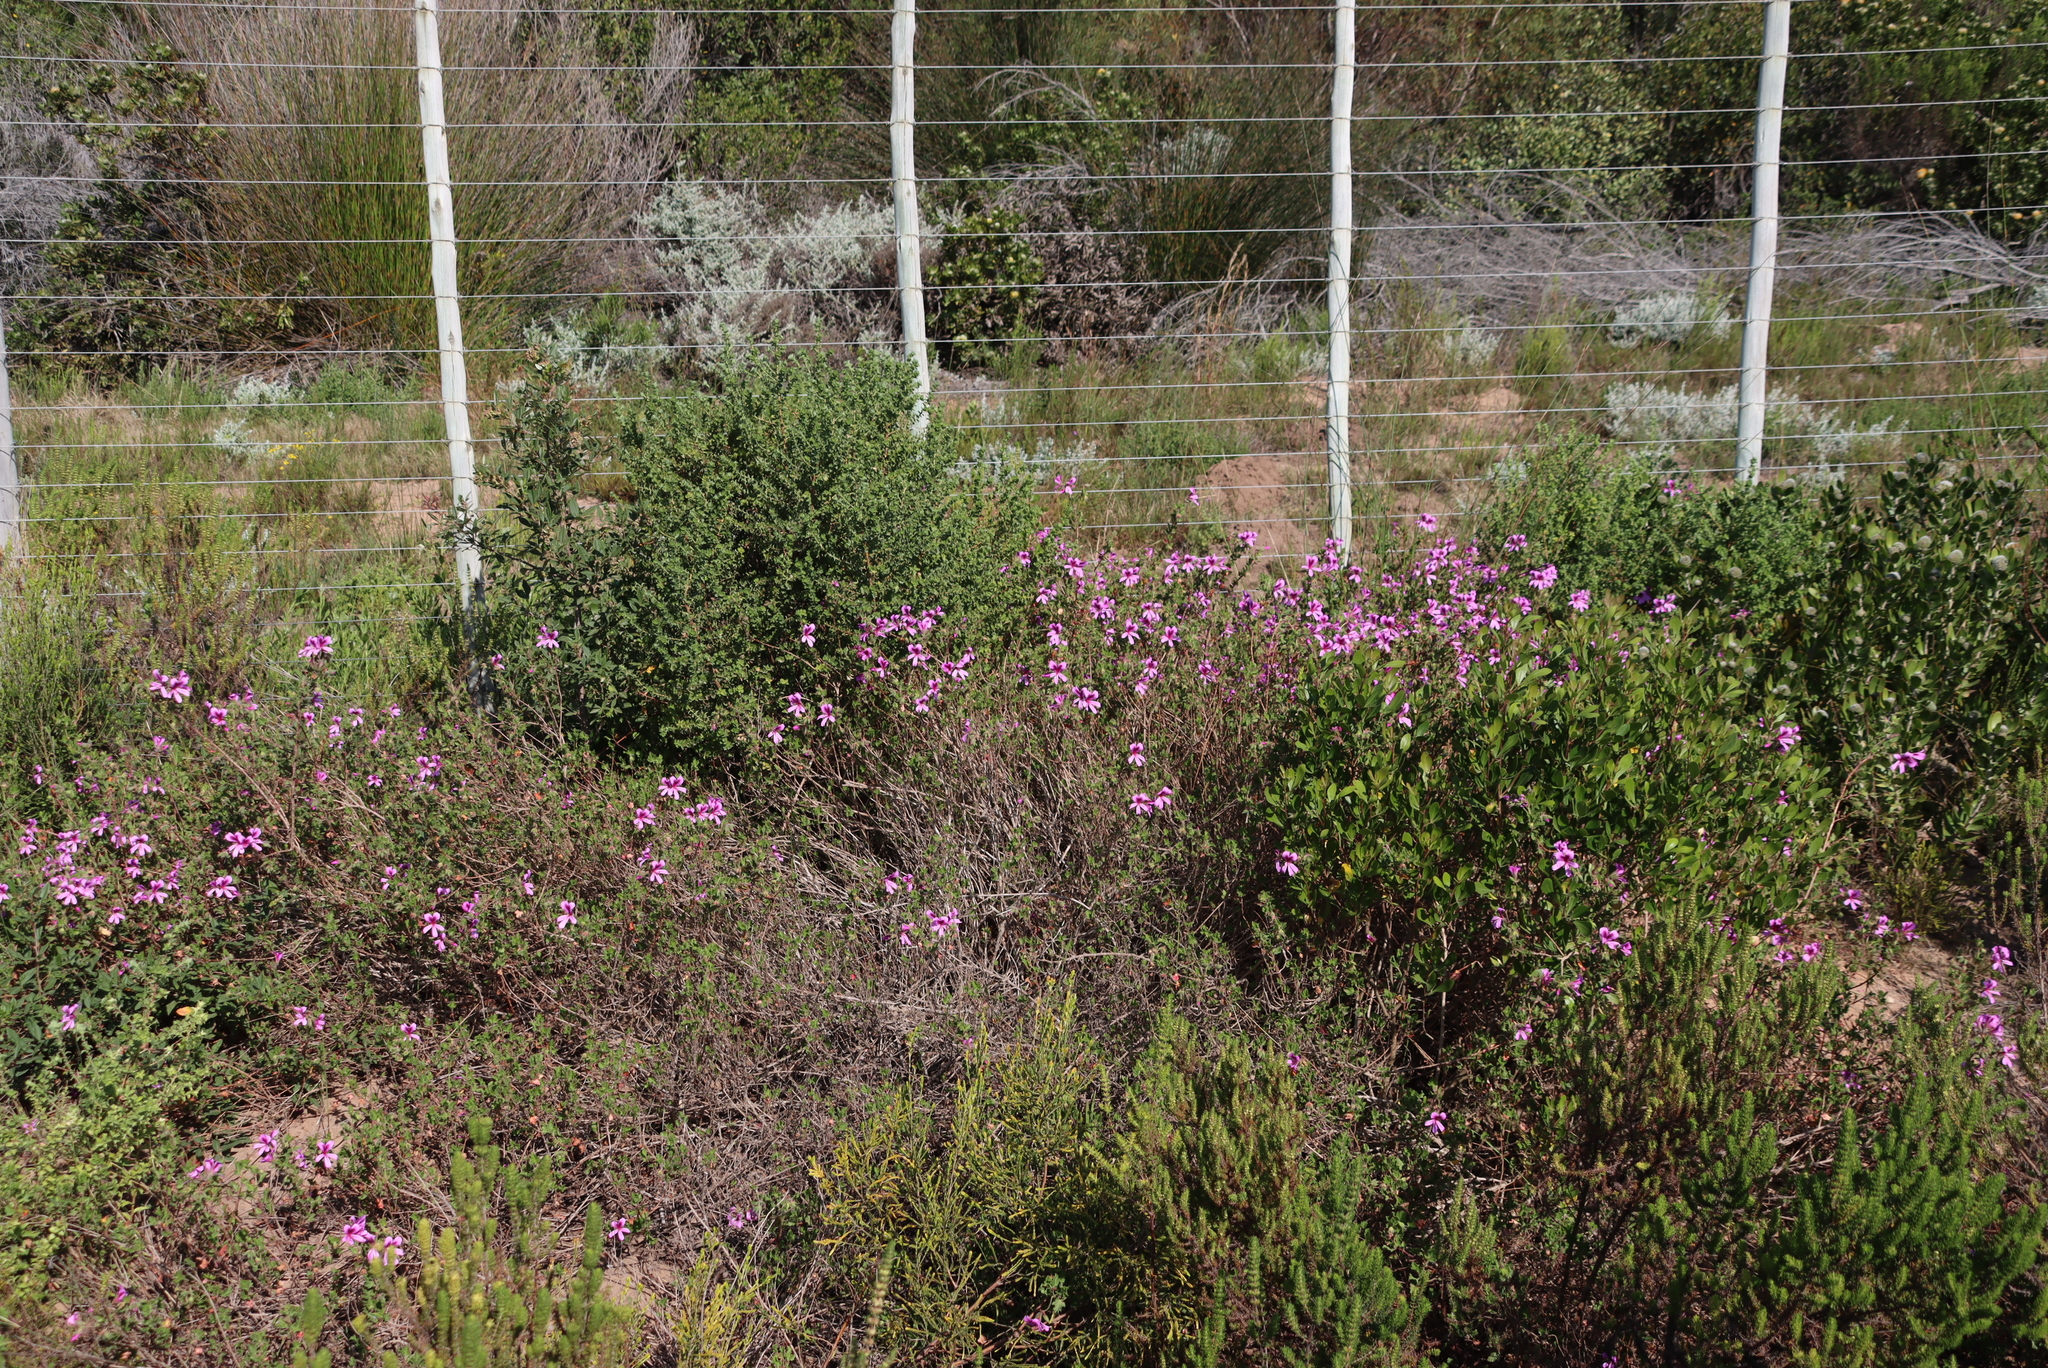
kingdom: Plantae
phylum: Tracheophyta
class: Magnoliopsida
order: Geraniales
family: Geraniaceae
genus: Pelargonium
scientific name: Pelargonium betulinum
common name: Birch-leaf pelargonium
